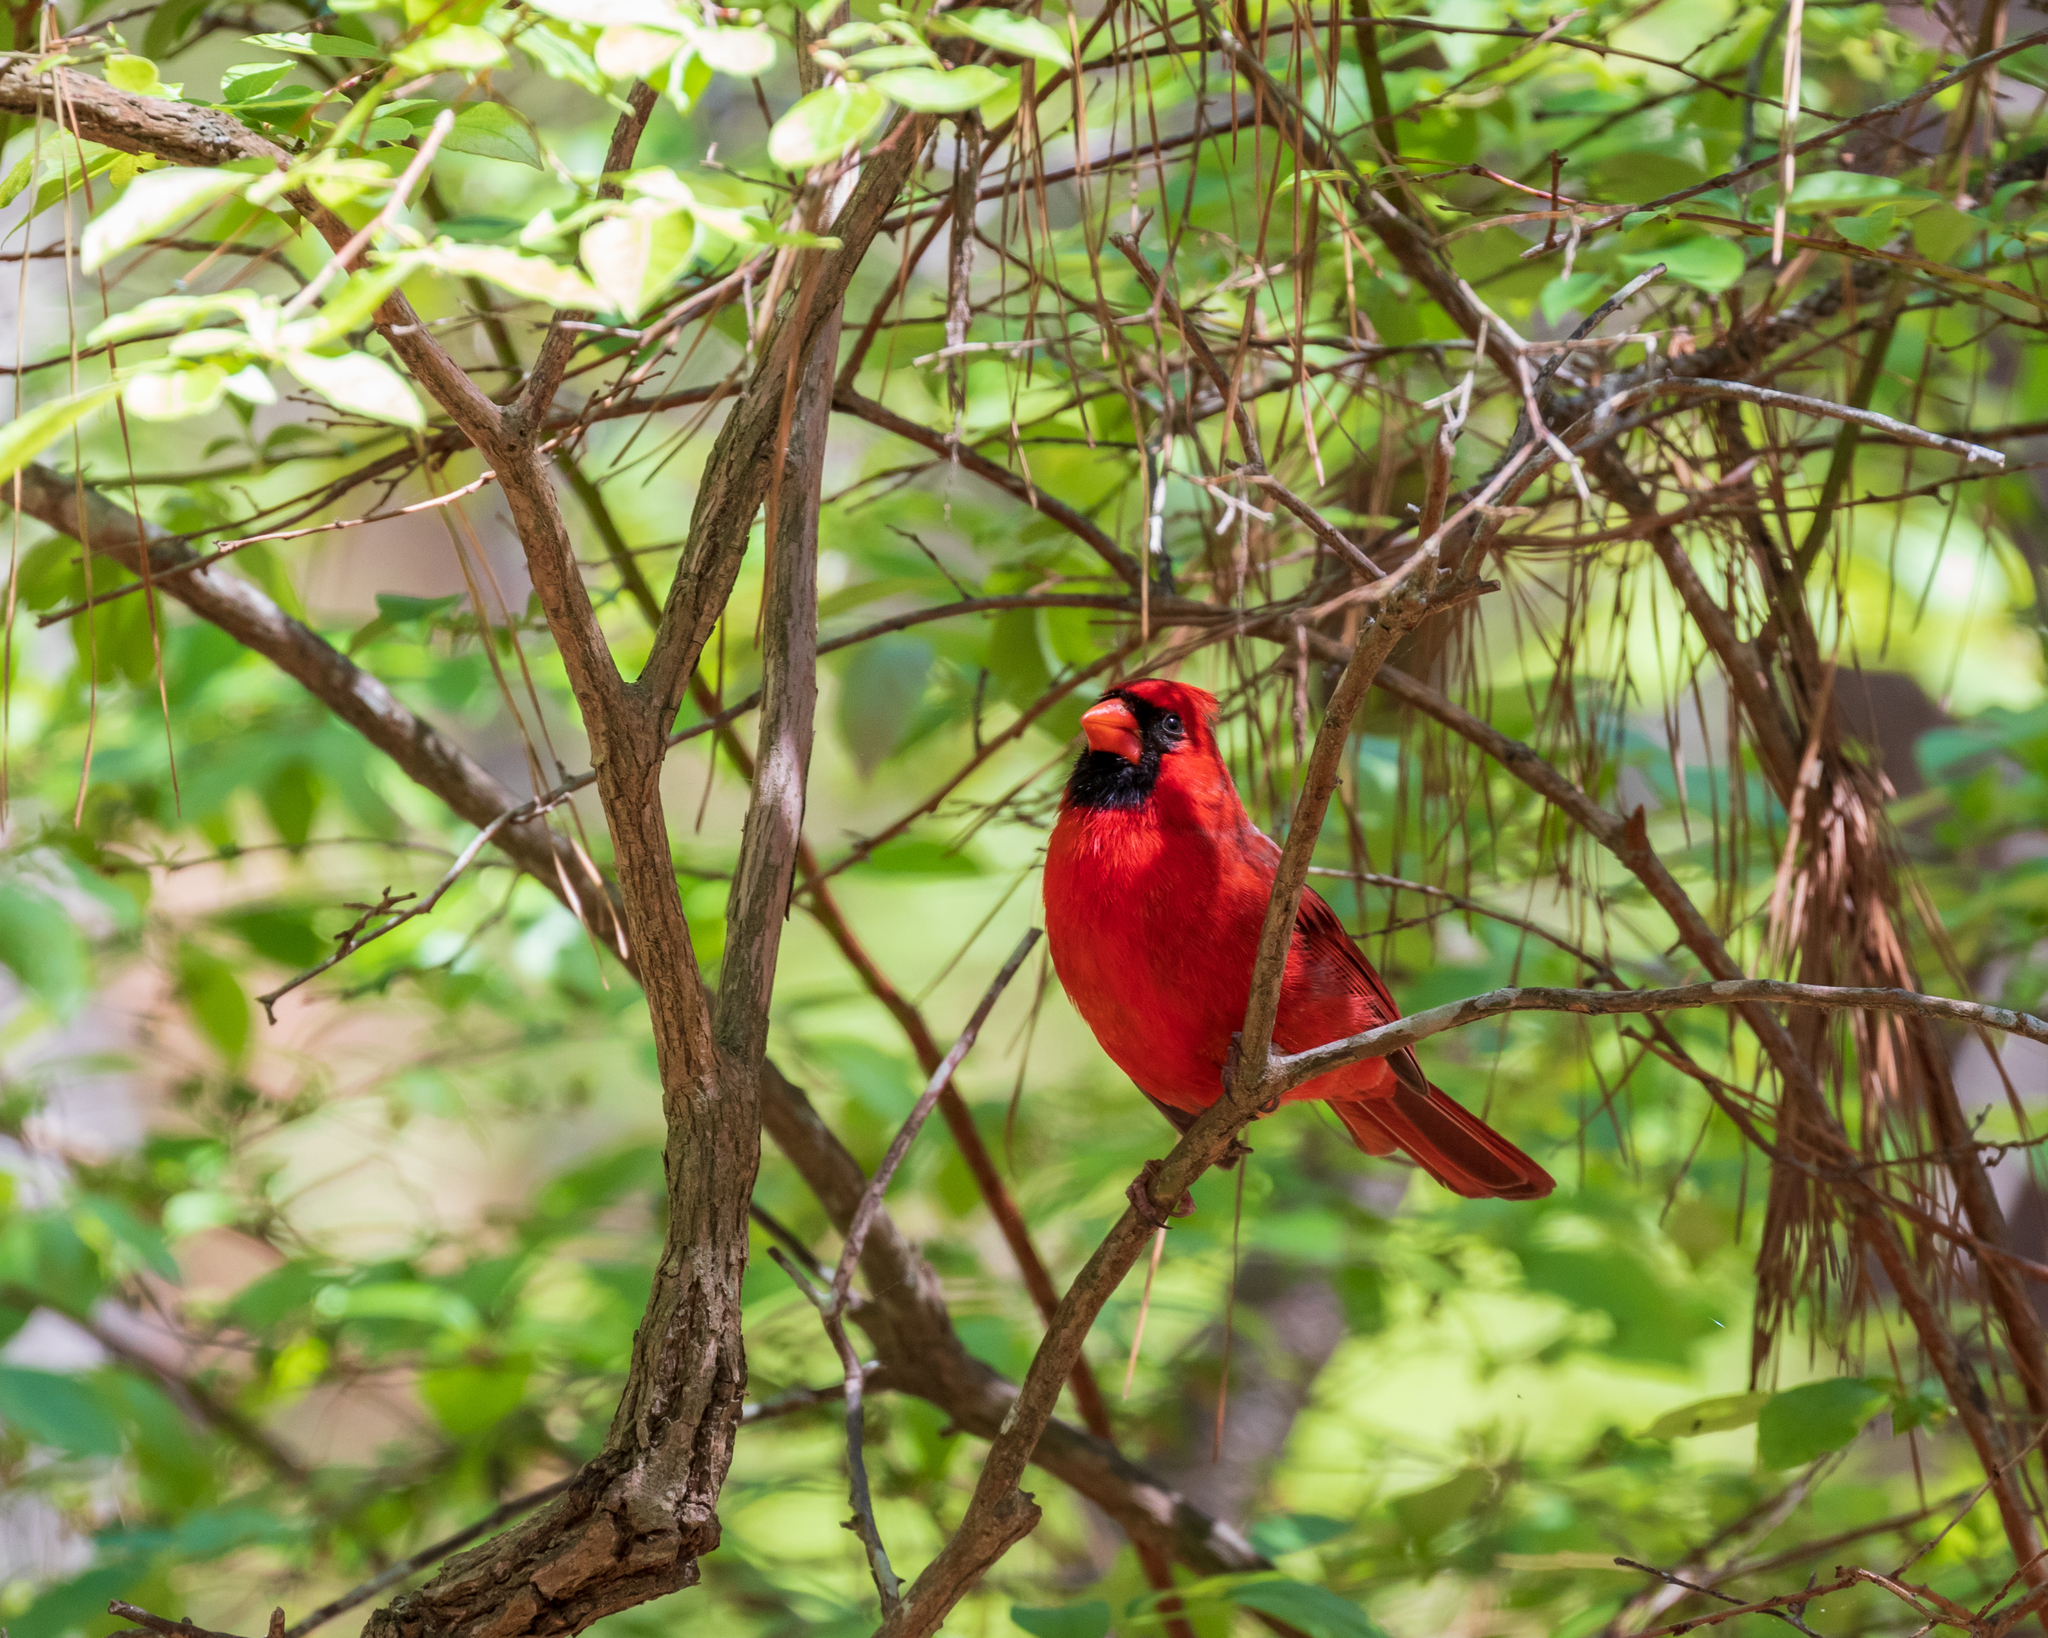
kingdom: Animalia
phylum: Chordata
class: Aves
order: Passeriformes
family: Cardinalidae
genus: Cardinalis
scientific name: Cardinalis cardinalis
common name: Northern cardinal
